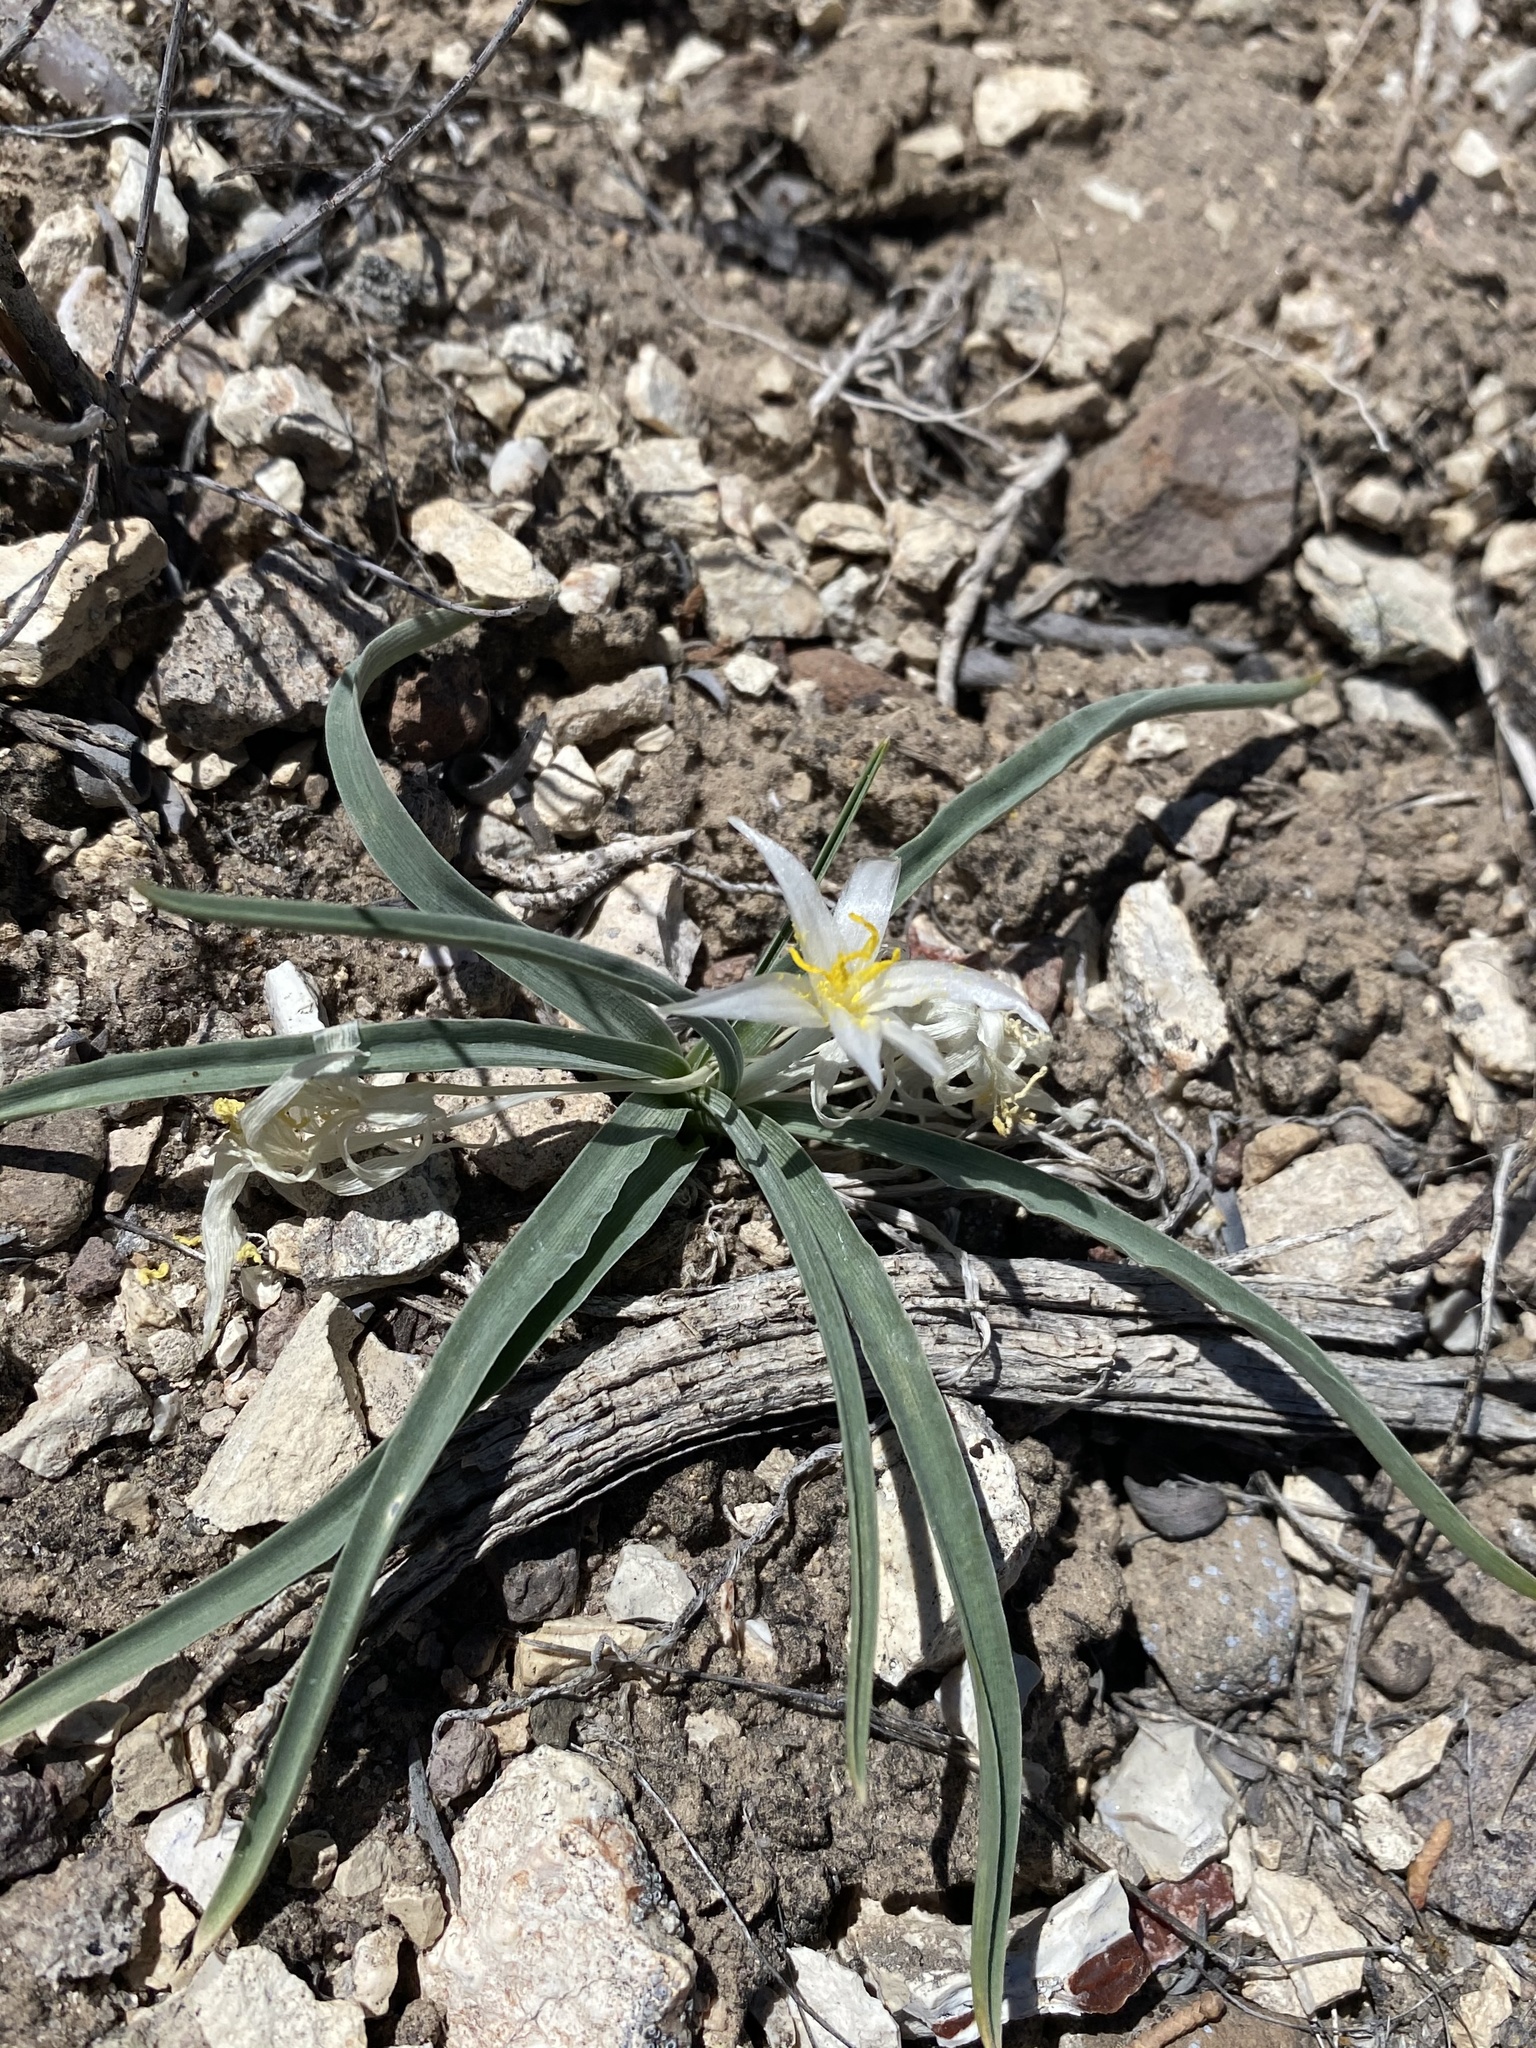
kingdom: Plantae
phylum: Tracheophyta
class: Liliopsida
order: Asparagales
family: Asparagaceae
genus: Leucocrinum
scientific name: Leucocrinum montanum
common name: Mountain-lily
